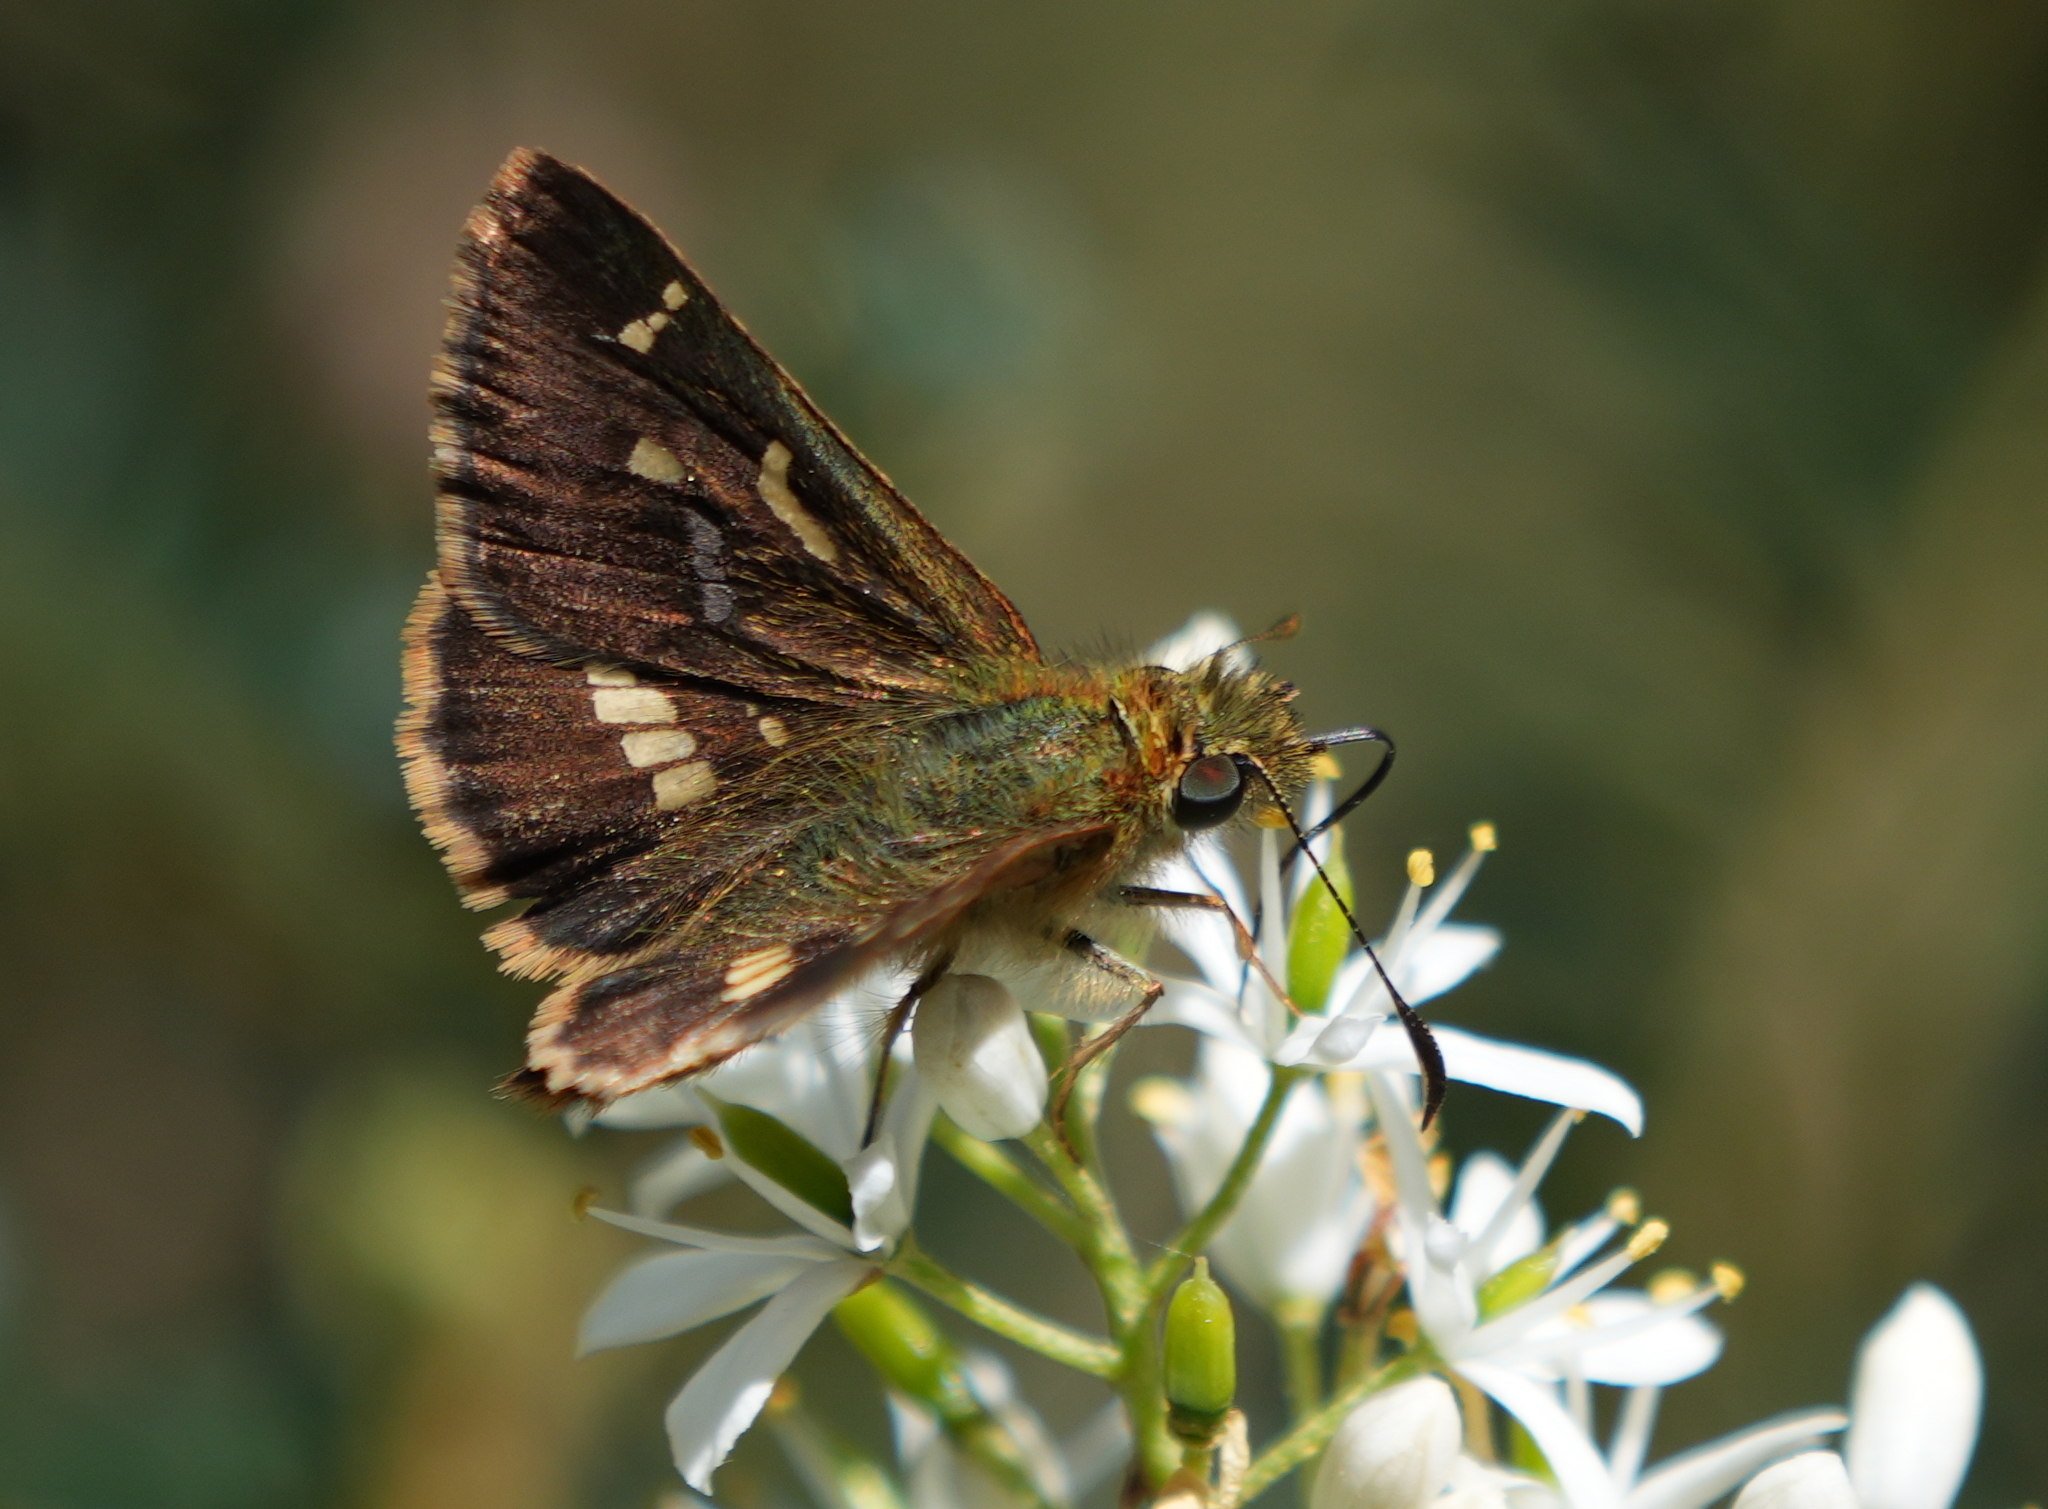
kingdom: Animalia
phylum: Arthropoda
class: Insecta
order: Lepidoptera
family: Hesperiidae
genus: Dispar
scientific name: Dispar compacta
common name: Barred skipper
